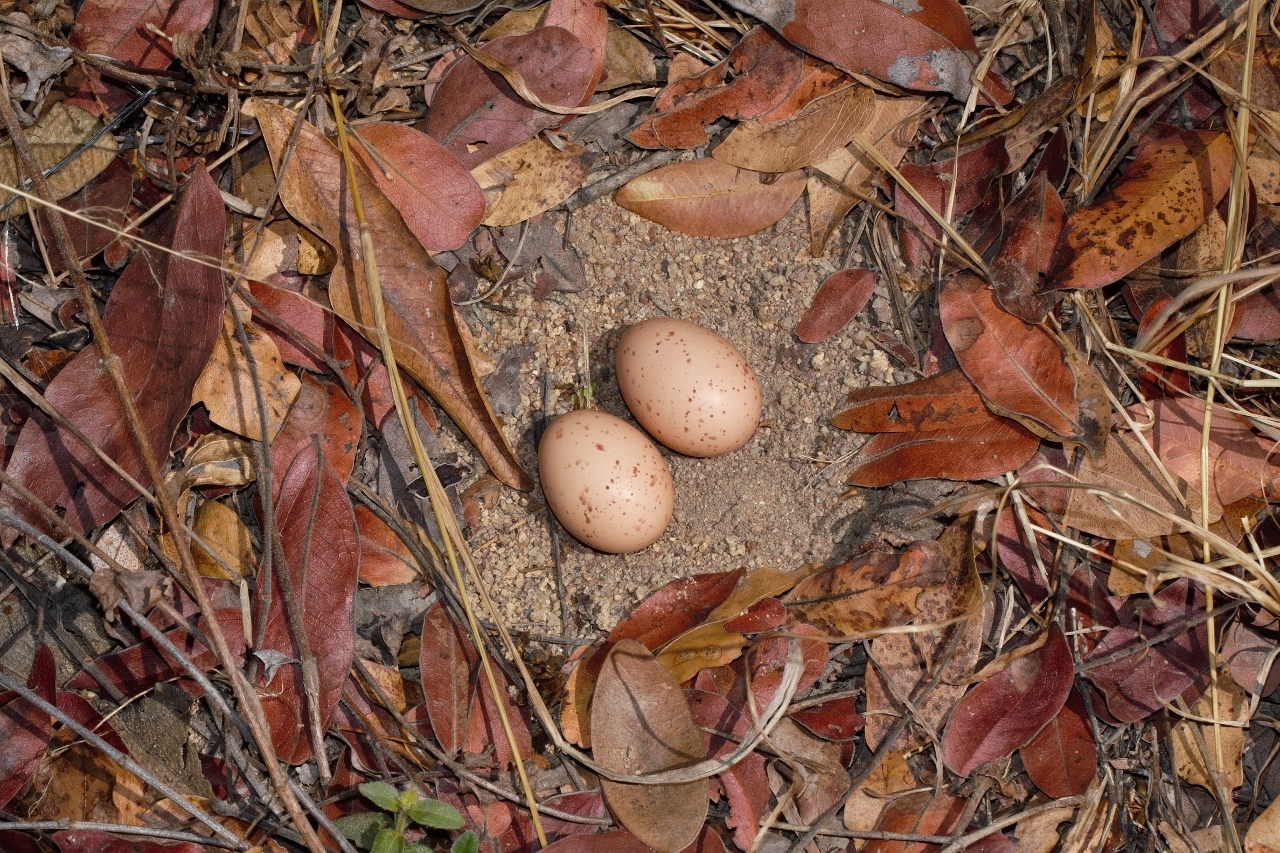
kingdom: Animalia
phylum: Chordata
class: Aves
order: Caprimulgiformes
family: Caprimulgidae
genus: Caprimulgus
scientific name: Caprimulgus pectoralis
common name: Fiery-necked nightjar
